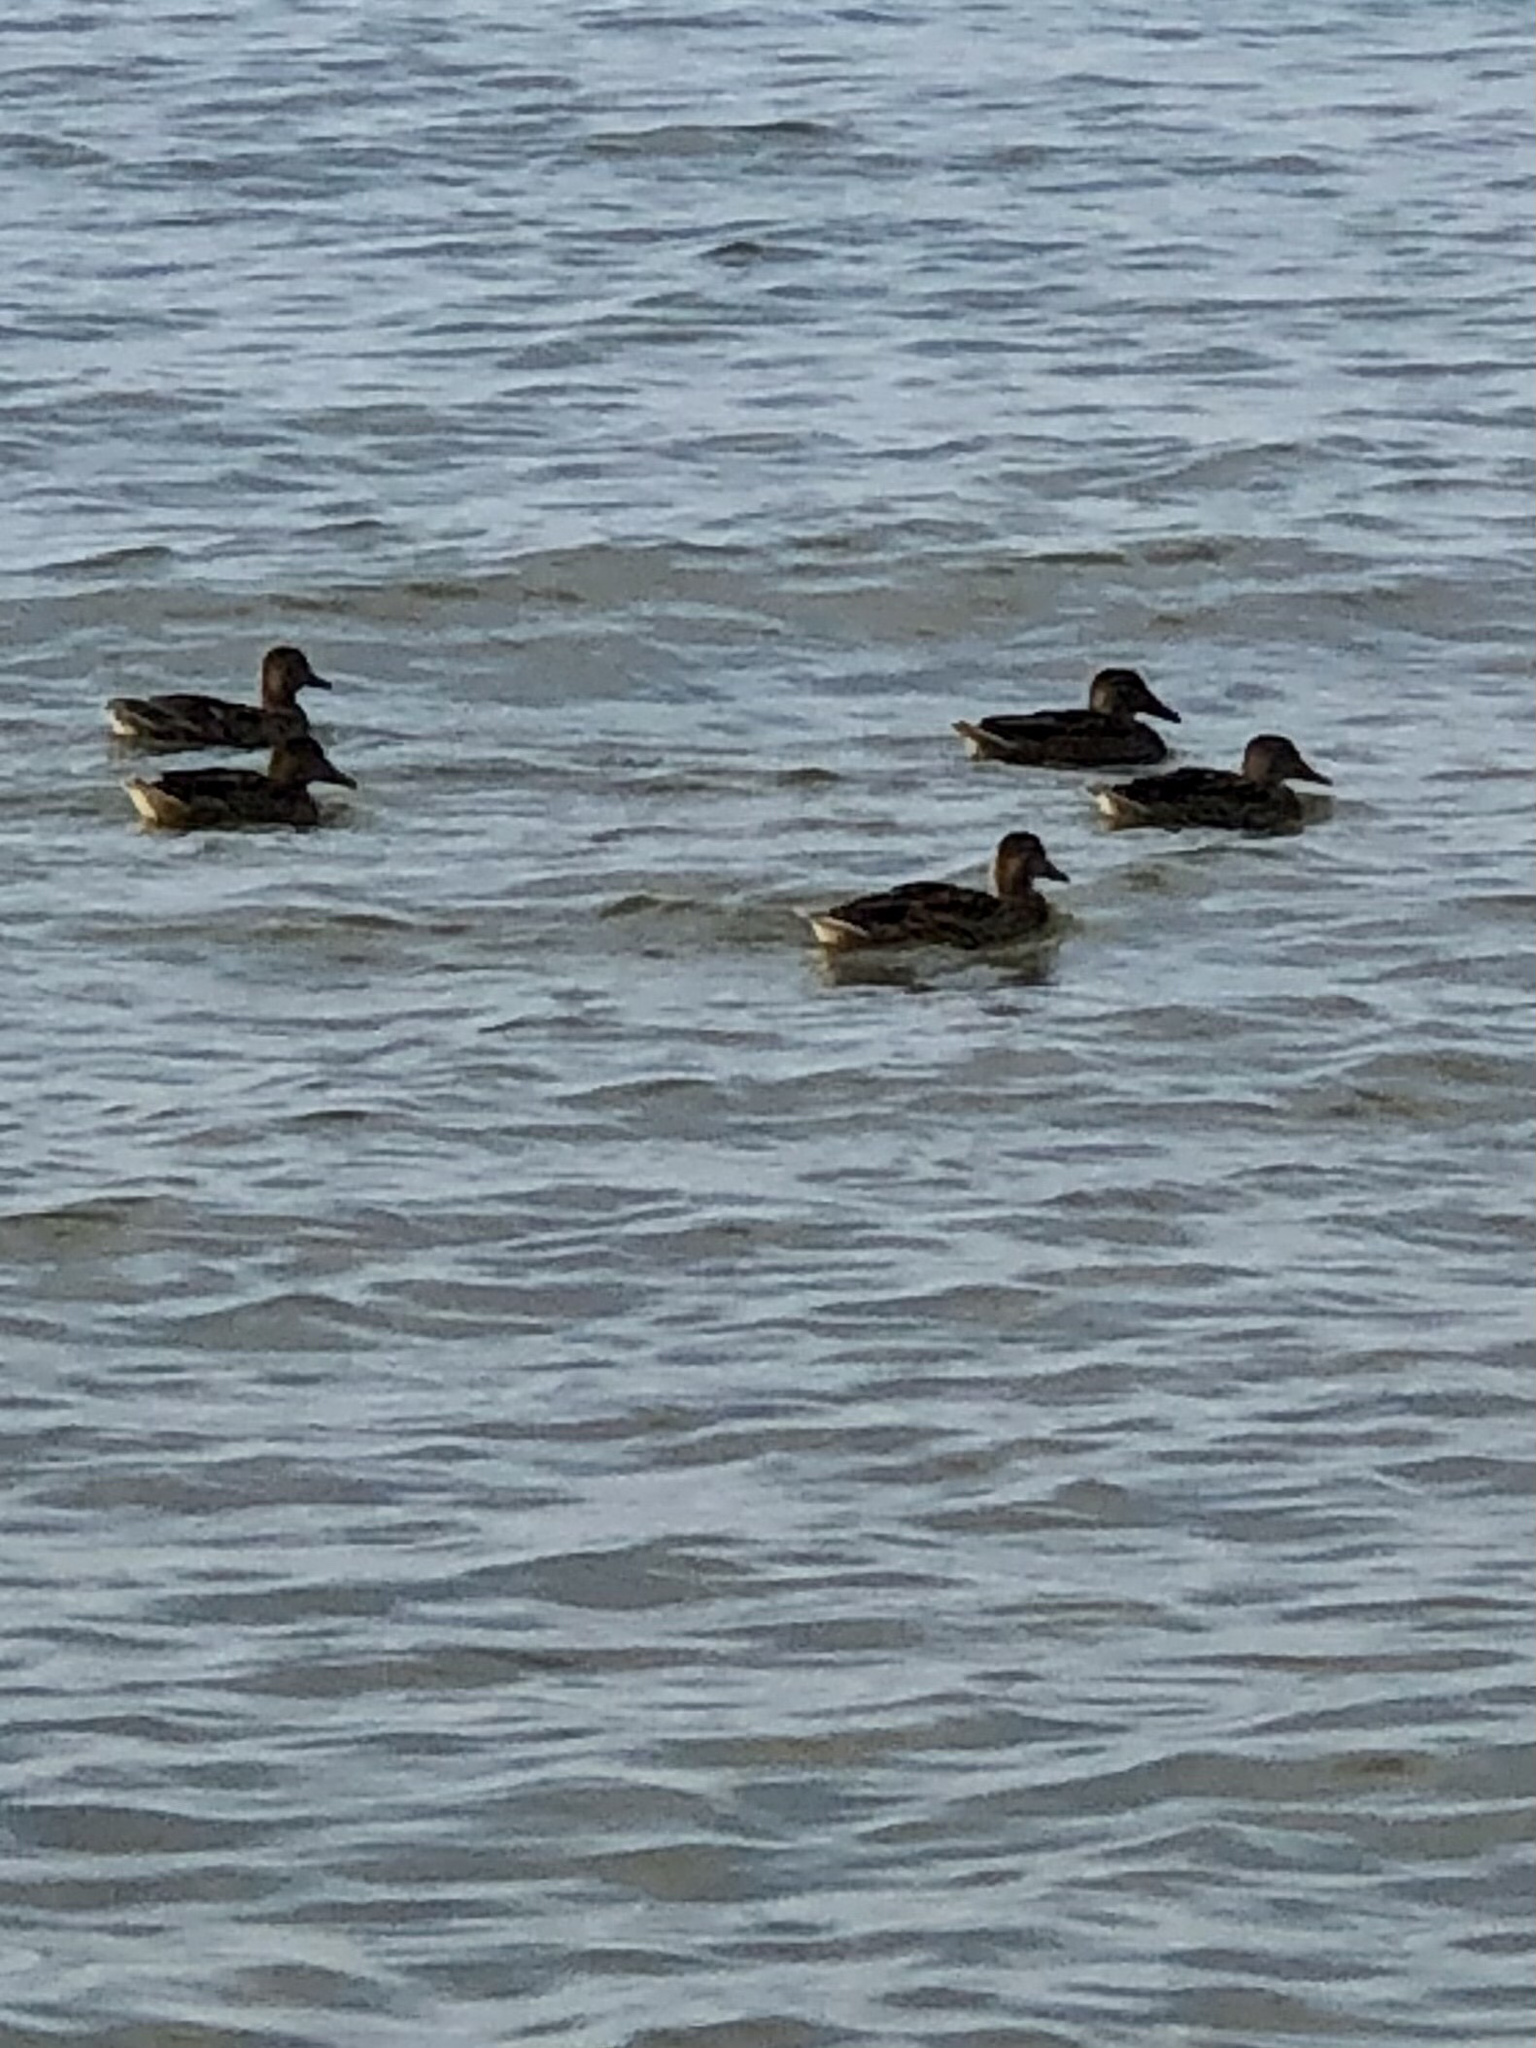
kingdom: Animalia
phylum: Chordata
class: Aves
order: Anseriformes
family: Anatidae
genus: Anas
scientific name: Anas platyrhynchos
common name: Mallard
